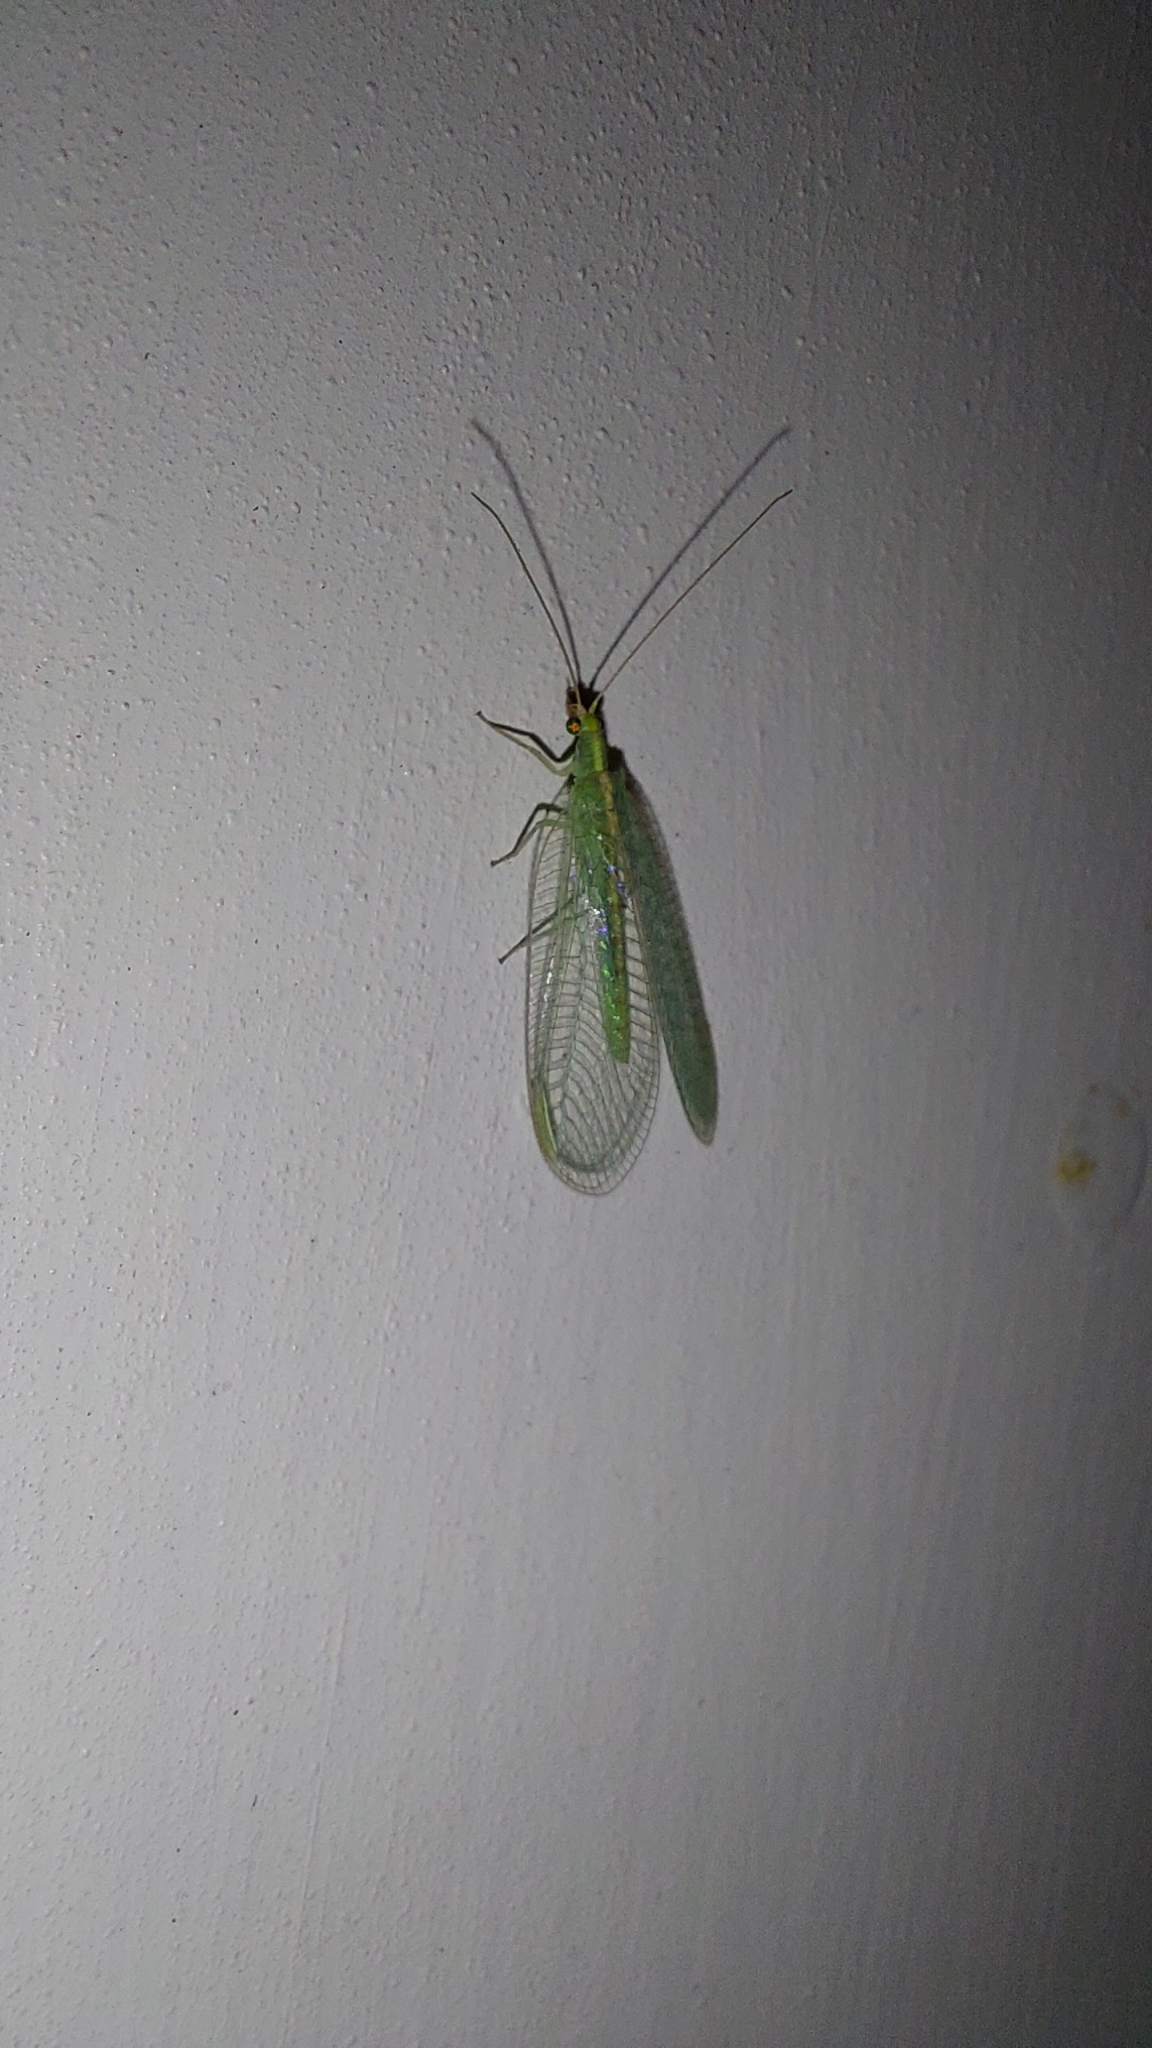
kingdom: Animalia
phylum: Arthropoda
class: Insecta
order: Neuroptera
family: Chrysopidae
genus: Chrysoperla
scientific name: Chrysoperla
